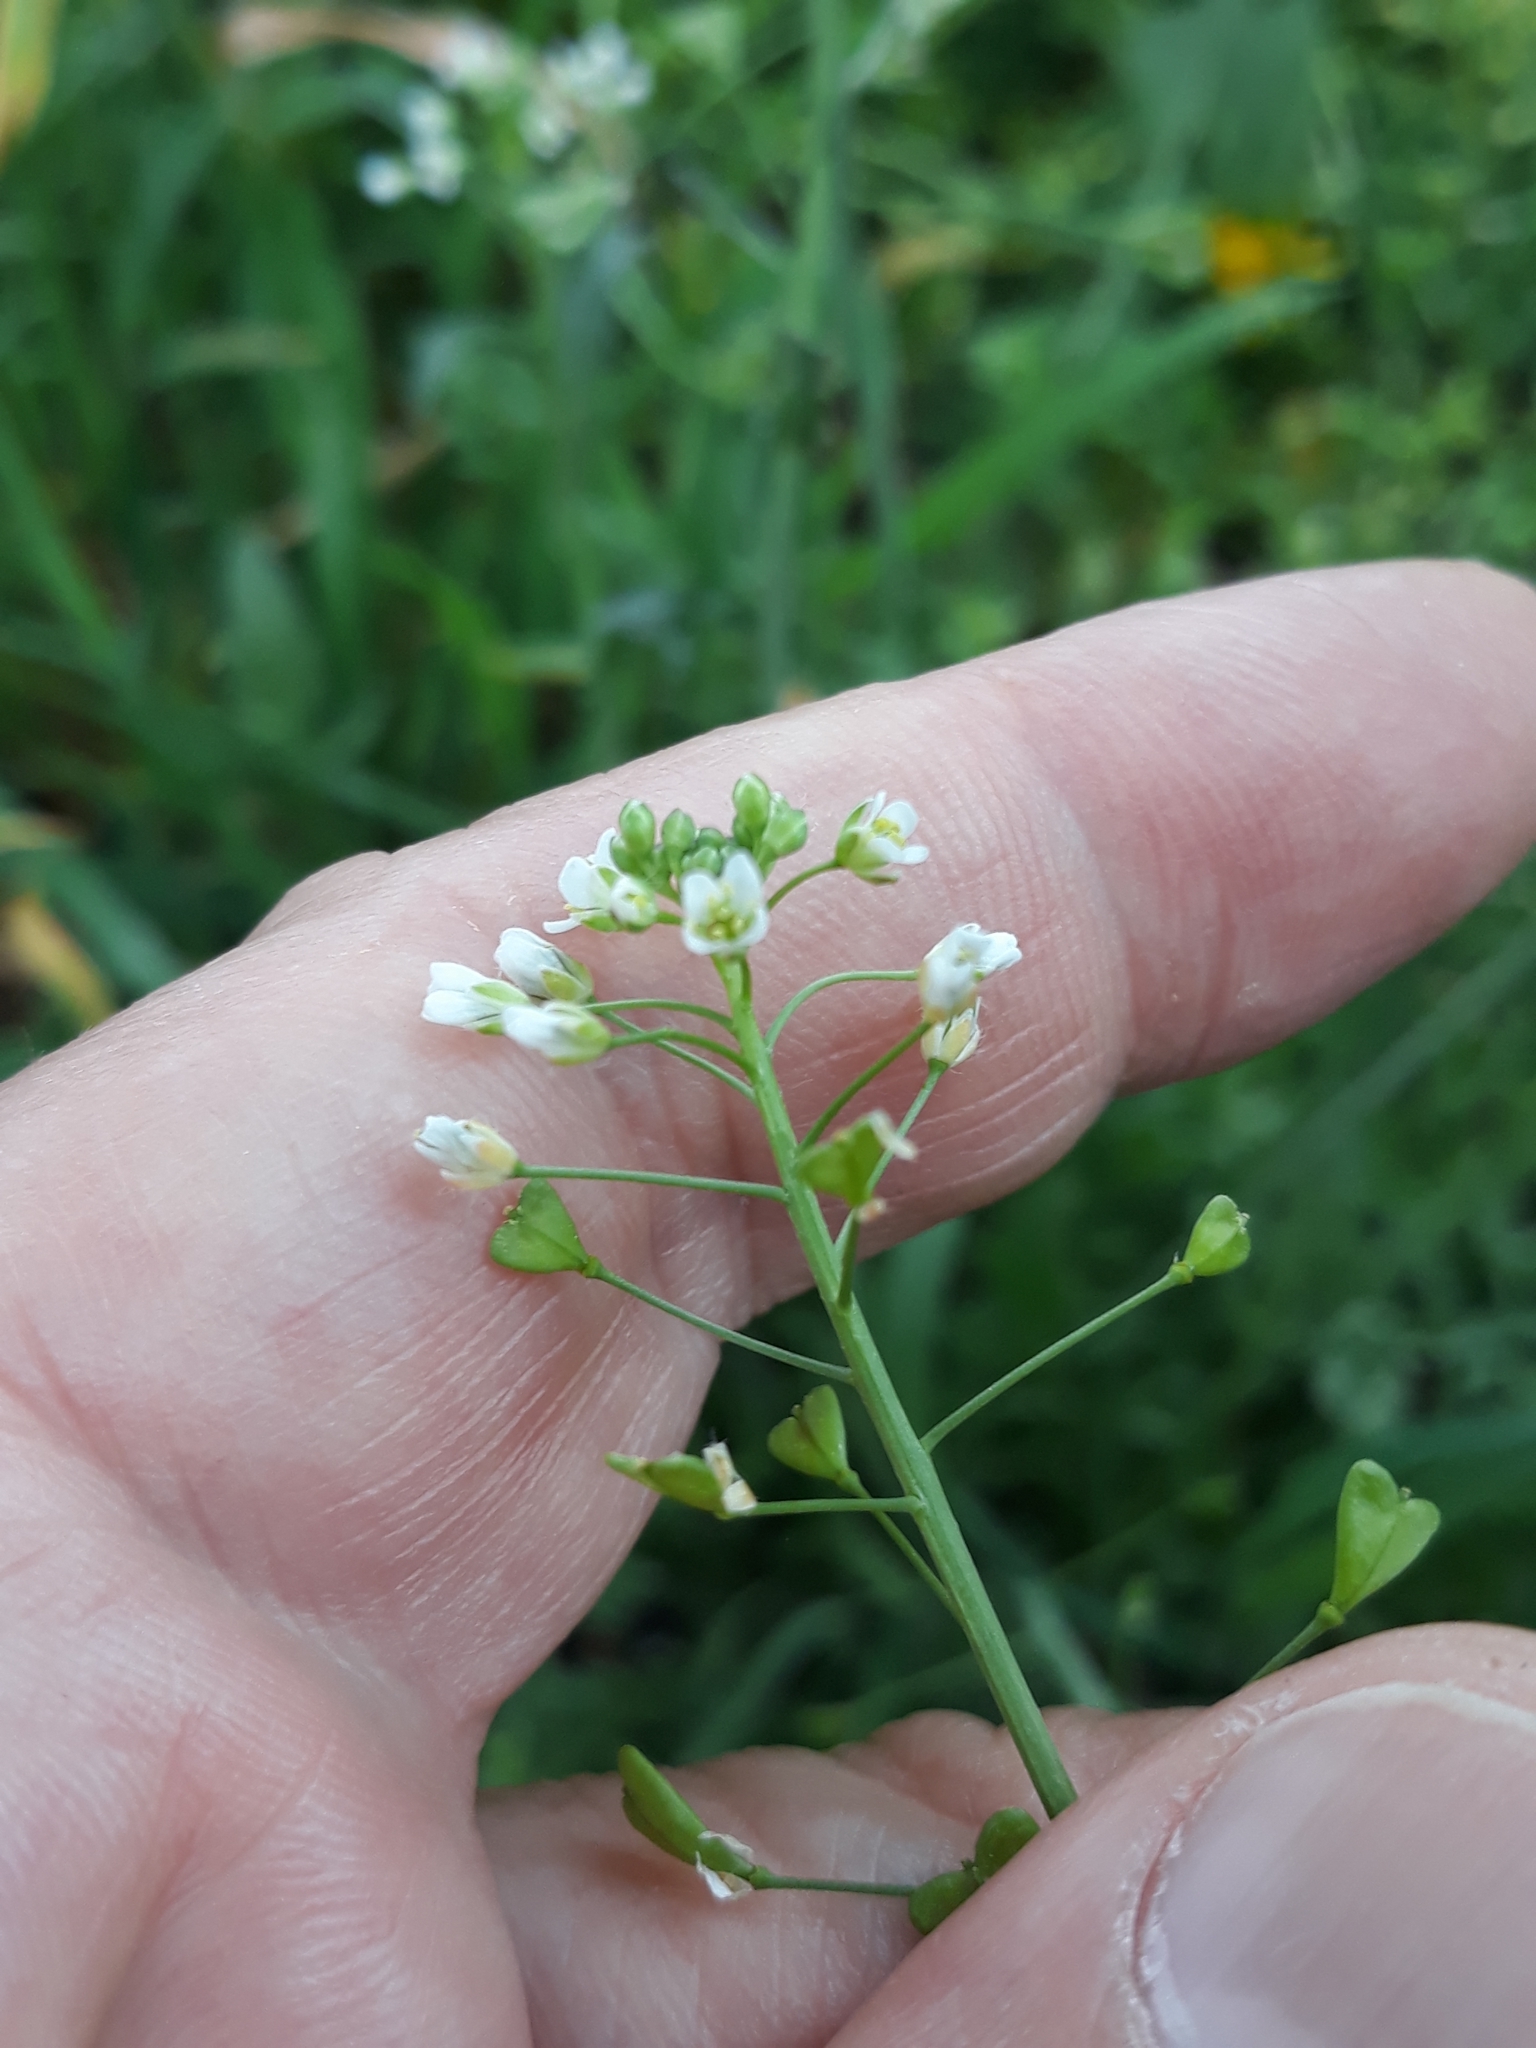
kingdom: Plantae
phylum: Tracheophyta
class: Magnoliopsida
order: Brassicales
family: Brassicaceae
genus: Capsella
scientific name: Capsella bursa-pastoris
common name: Shepherd's purse
